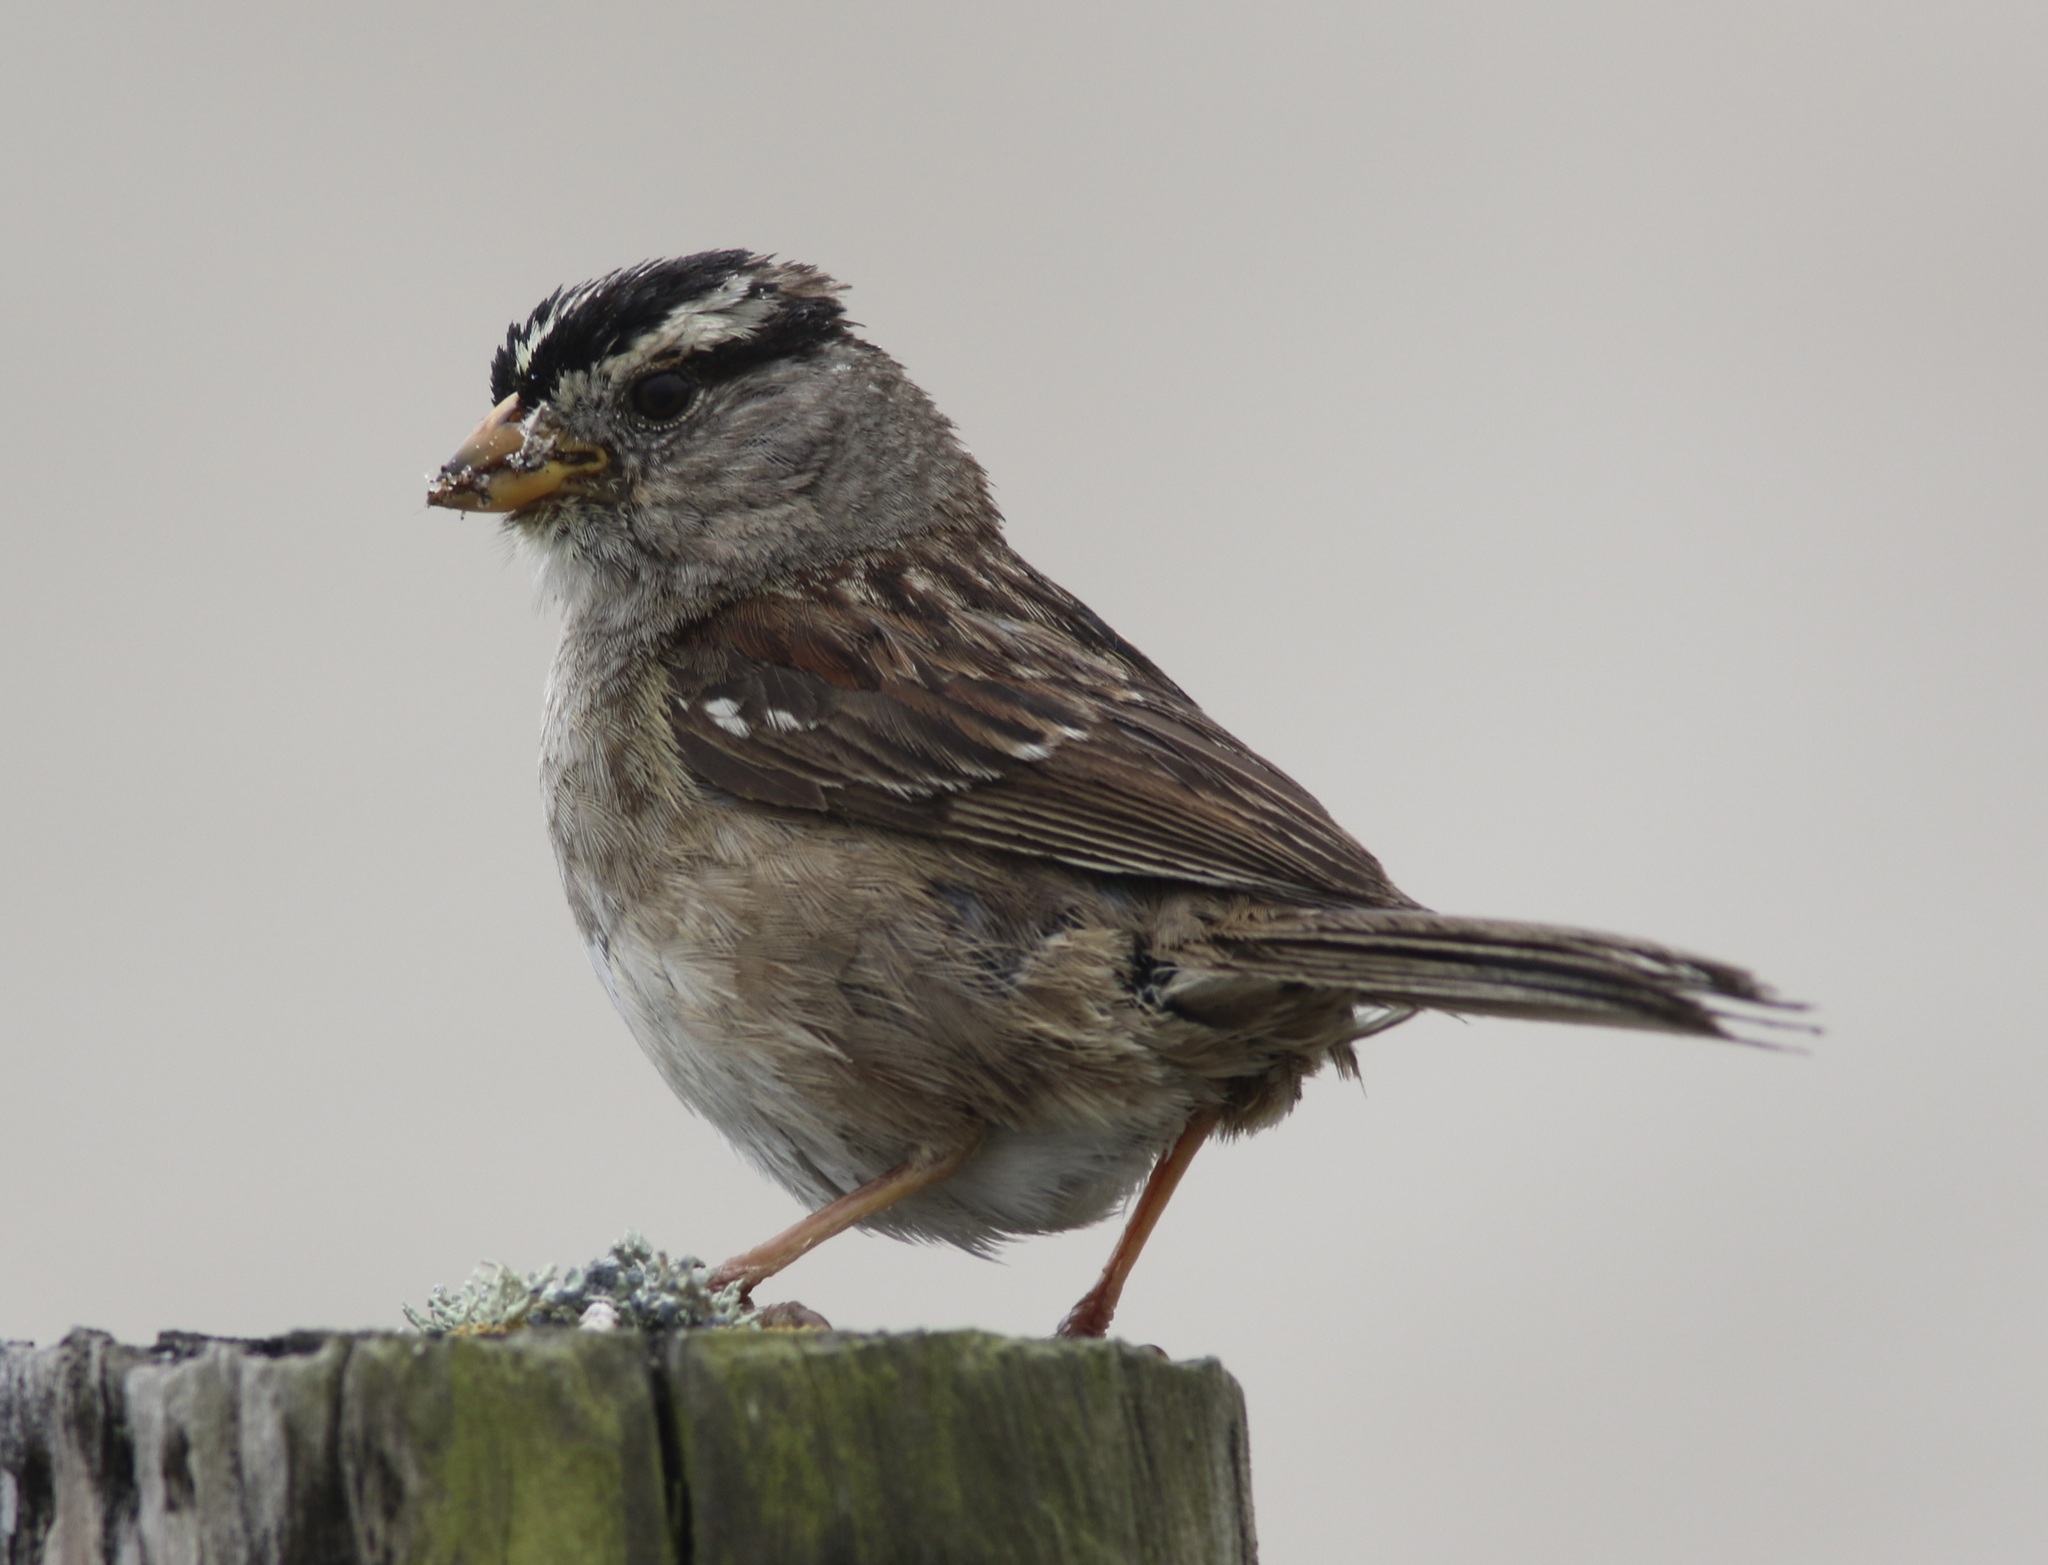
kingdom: Animalia
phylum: Chordata
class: Aves
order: Passeriformes
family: Passerellidae
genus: Zonotrichia
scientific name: Zonotrichia leucophrys
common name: White-crowned sparrow
